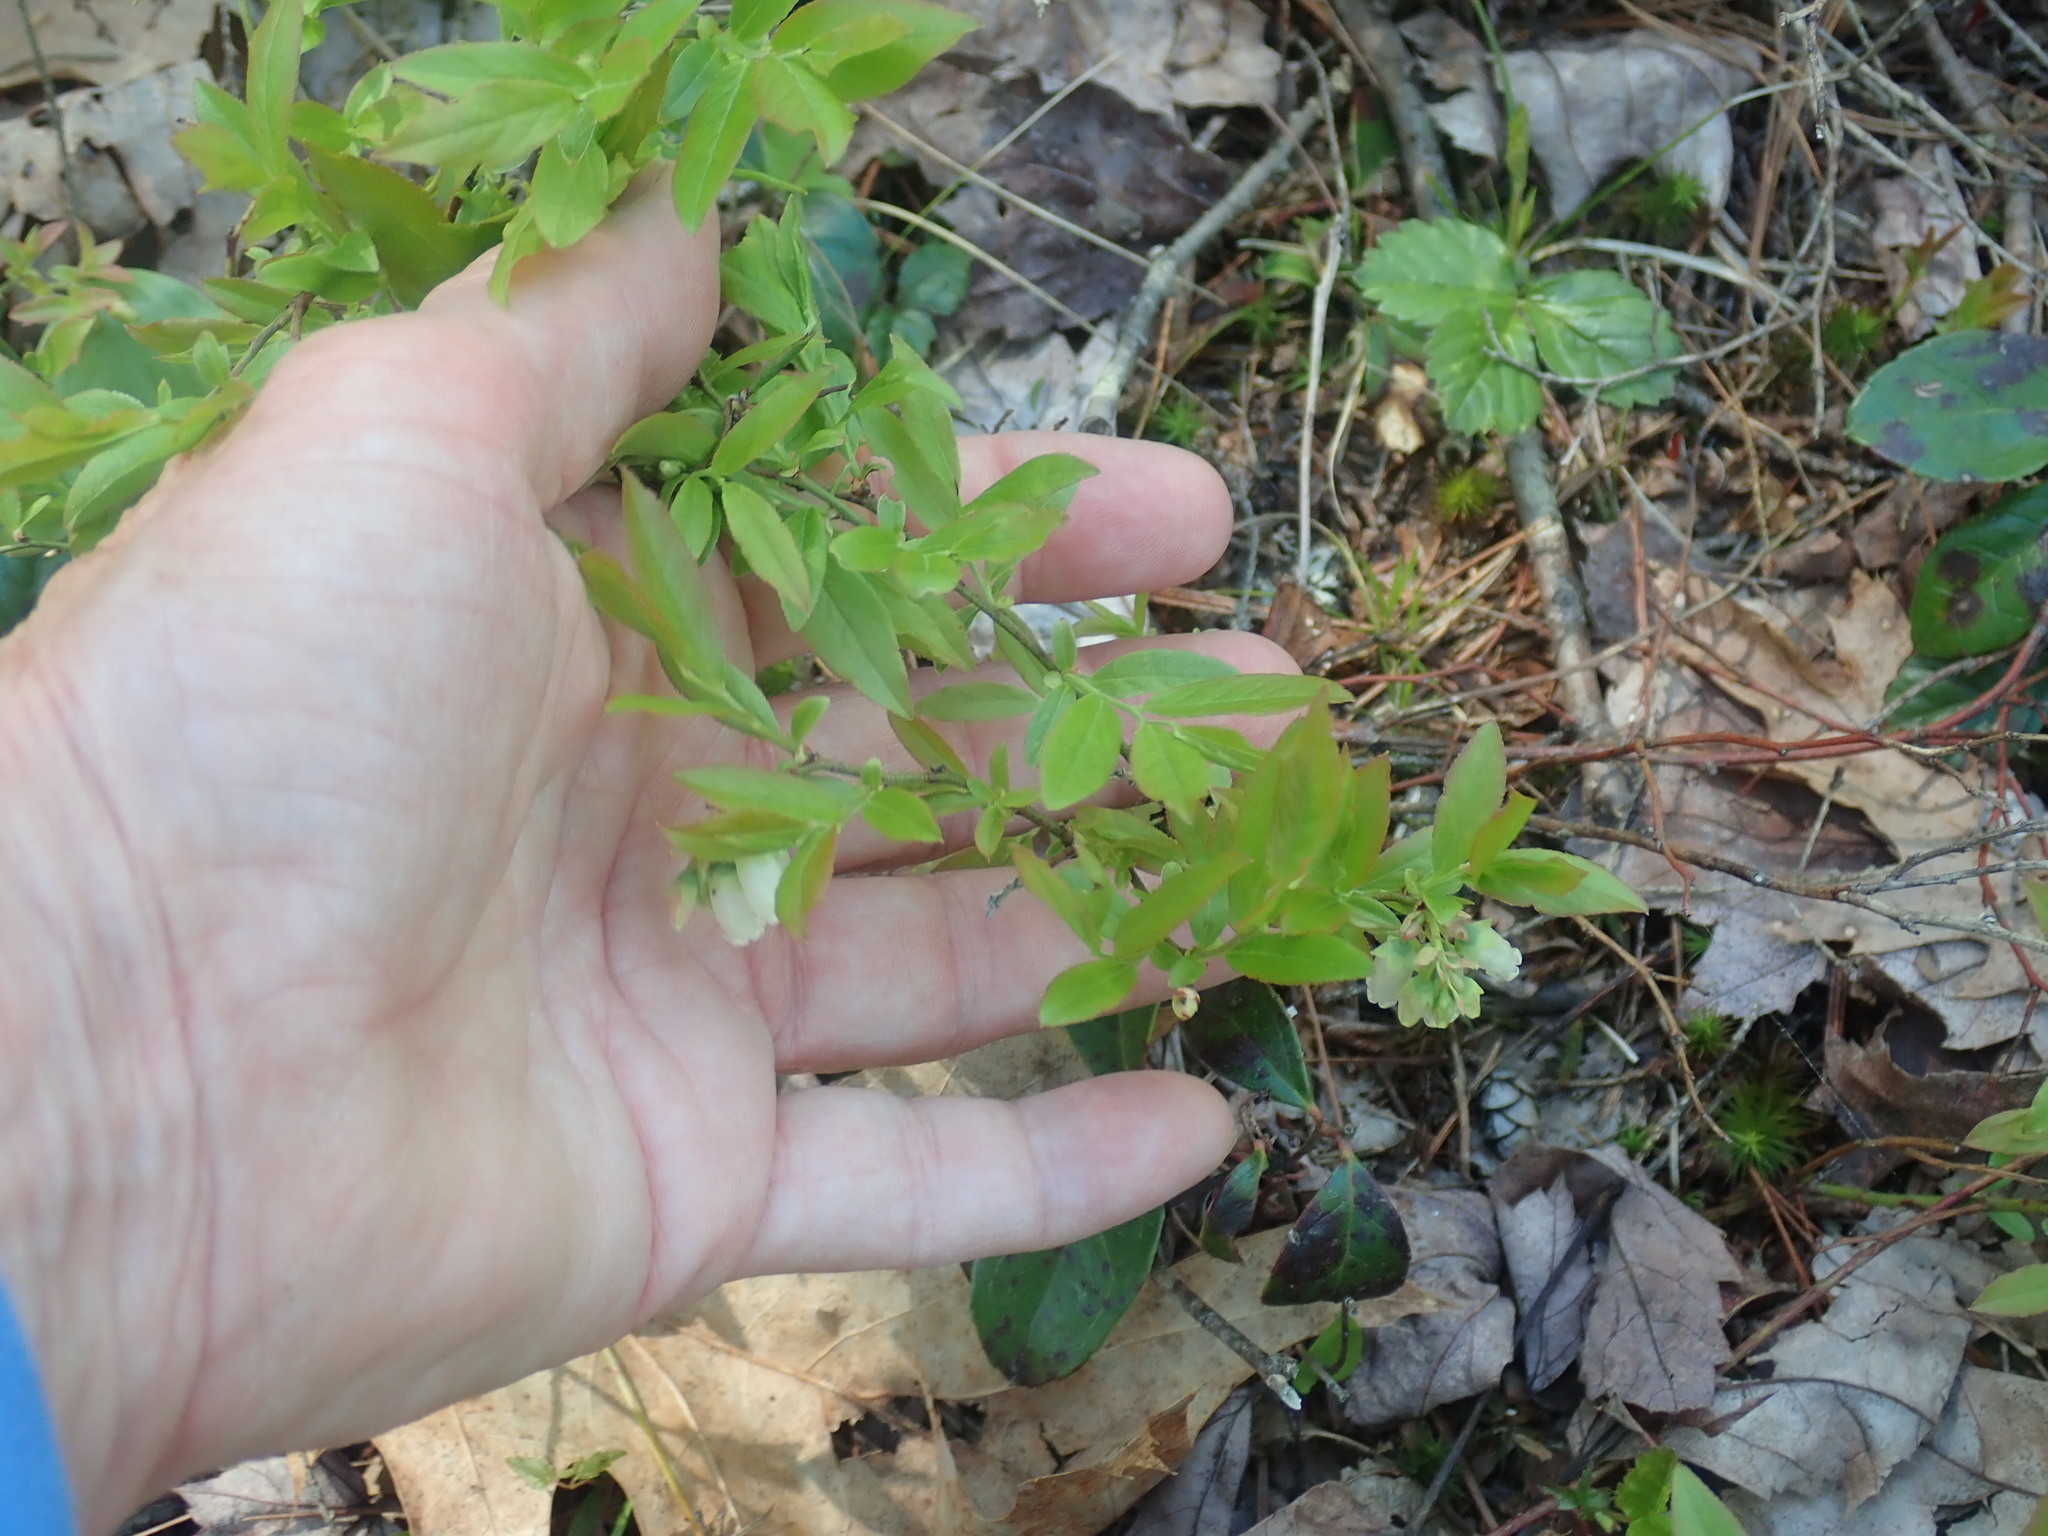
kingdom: Plantae
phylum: Tracheophyta
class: Magnoliopsida
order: Ericales
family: Ericaceae
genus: Vaccinium
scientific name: Vaccinium angustifolium
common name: Early lowbush blueberry
